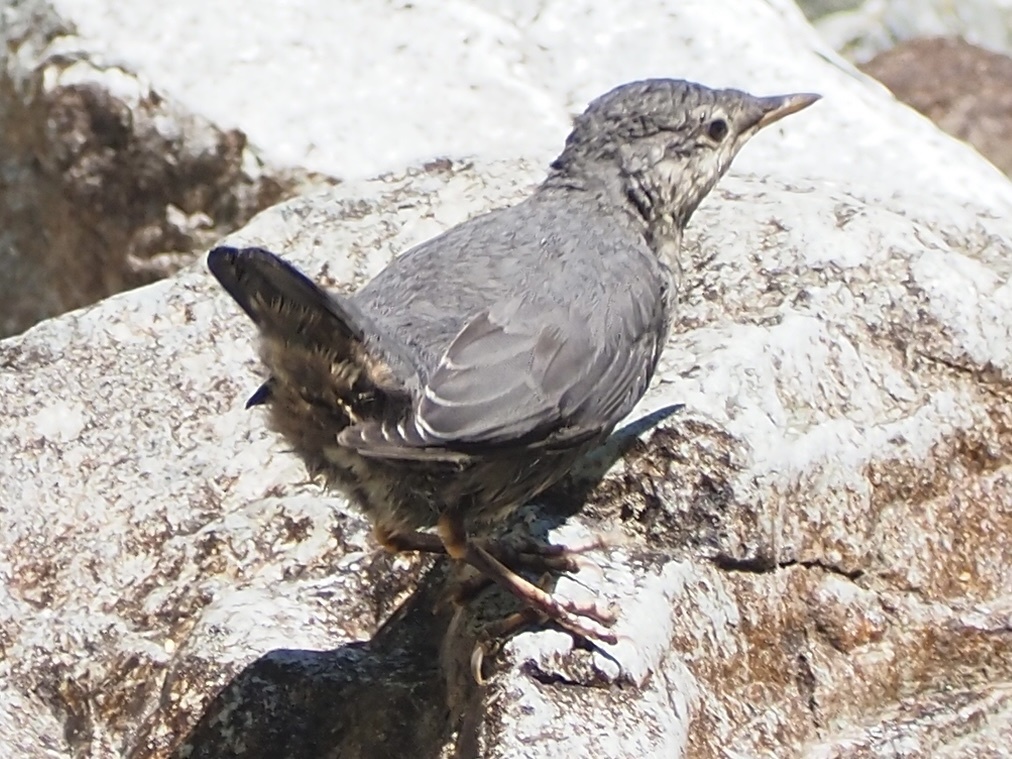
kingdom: Animalia
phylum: Chordata
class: Aves
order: Passeriformes
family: Cinclidae
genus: Cinclus
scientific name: Cinclus mexicanus
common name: American dipper
